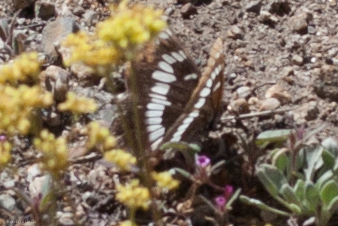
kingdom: Animalia
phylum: Arthropoda
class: Insecta
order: Lepidoptera
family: Nymphalidae
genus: Limenitis
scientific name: Limenitis lorquini
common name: Lorquin's admiral
